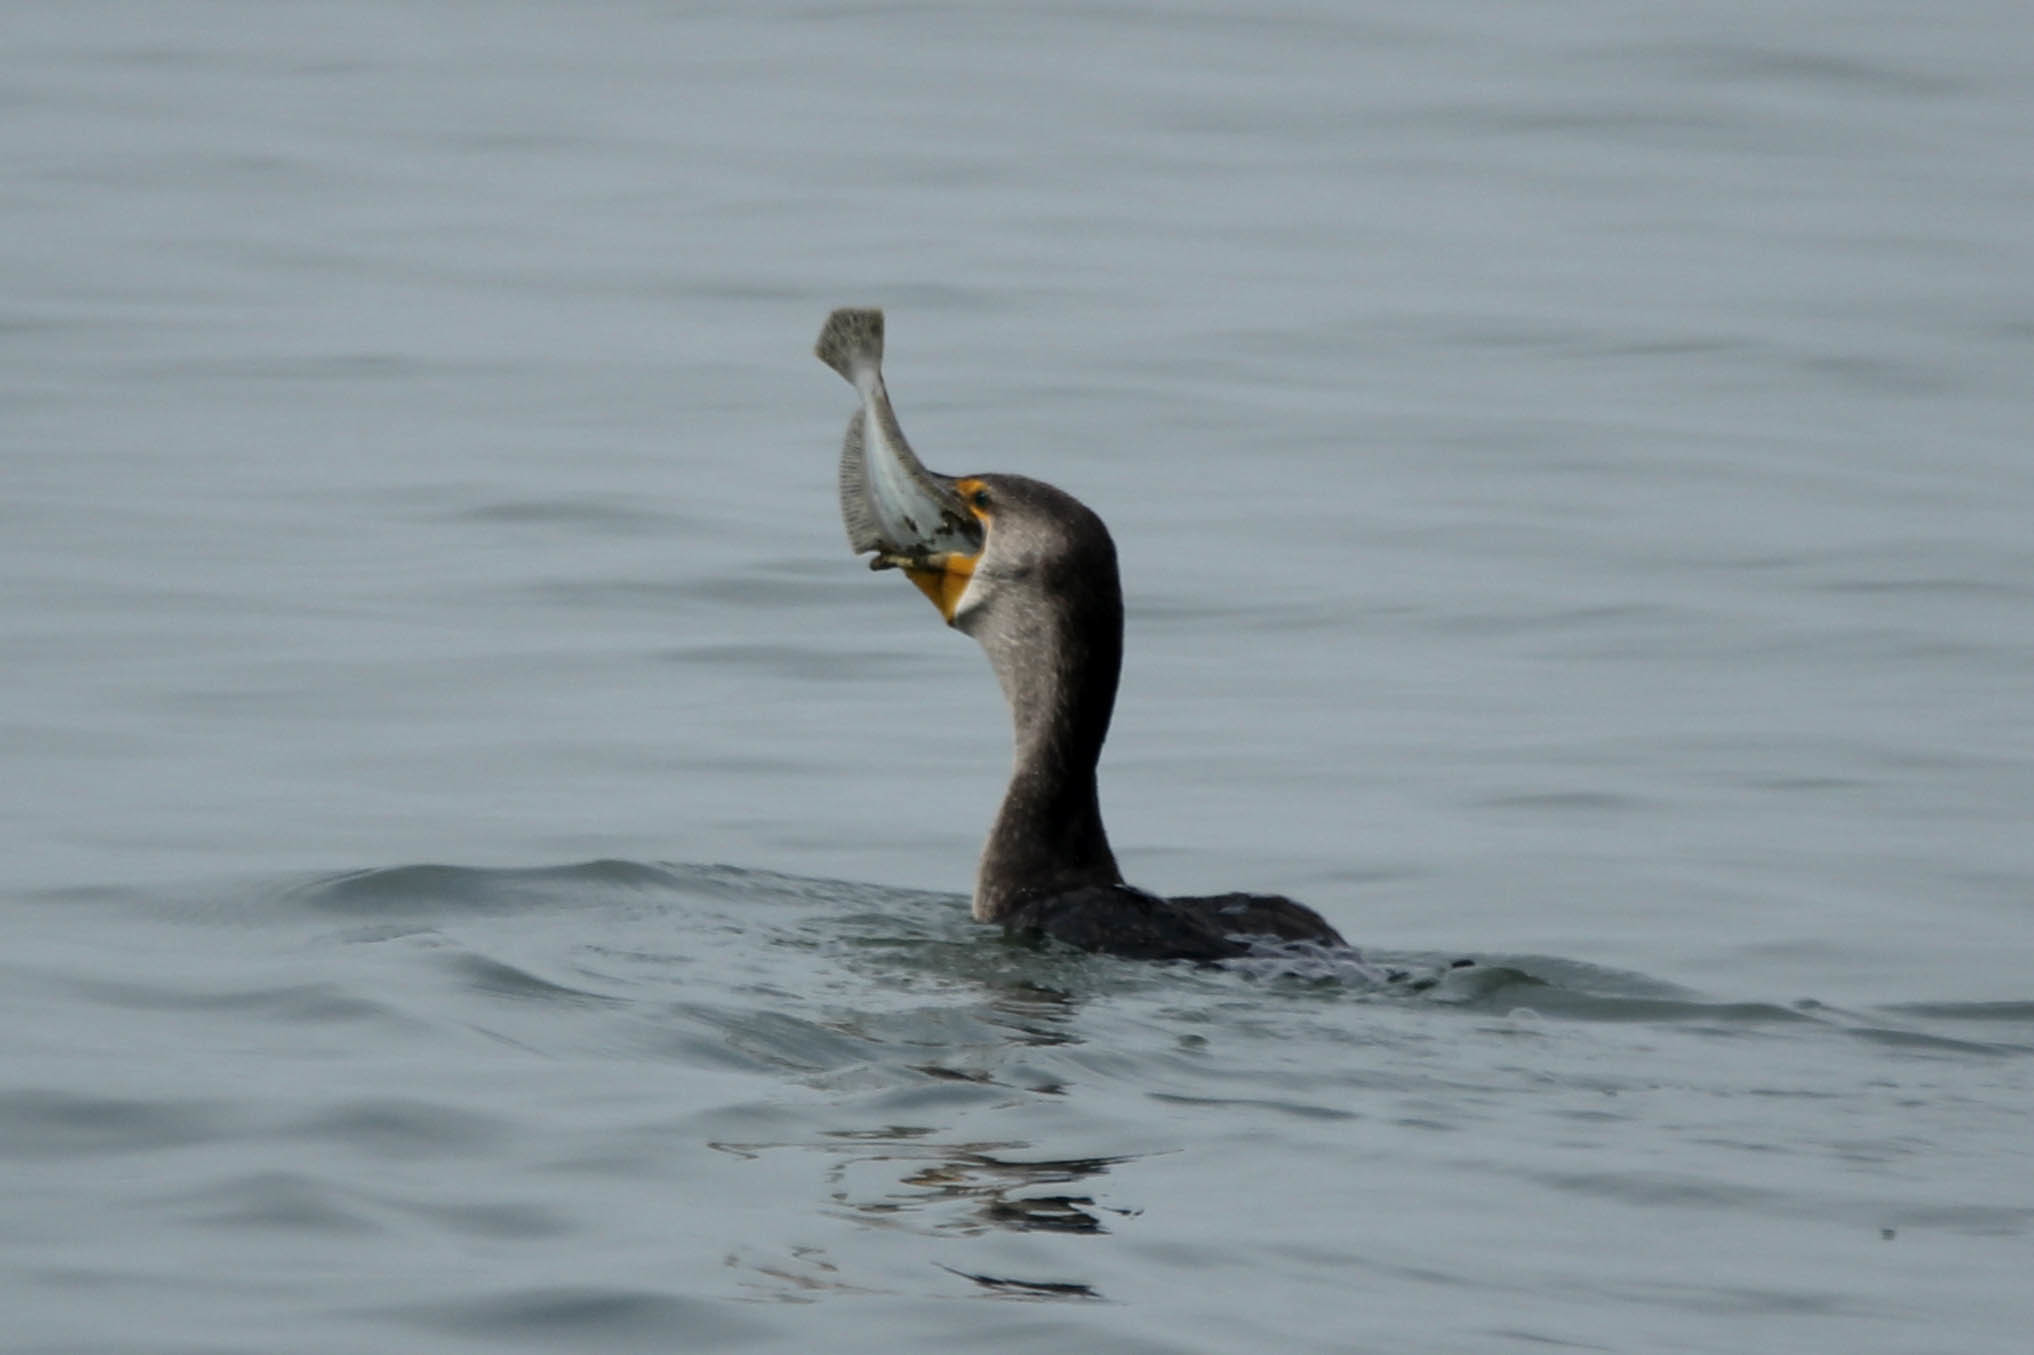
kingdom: Animalia
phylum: Chordata
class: Aves
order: Suliformes
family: Phalacrocoracidae
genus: Phalacrocorax
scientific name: Phalacrocorax auritus
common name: Double-crested cormorant
